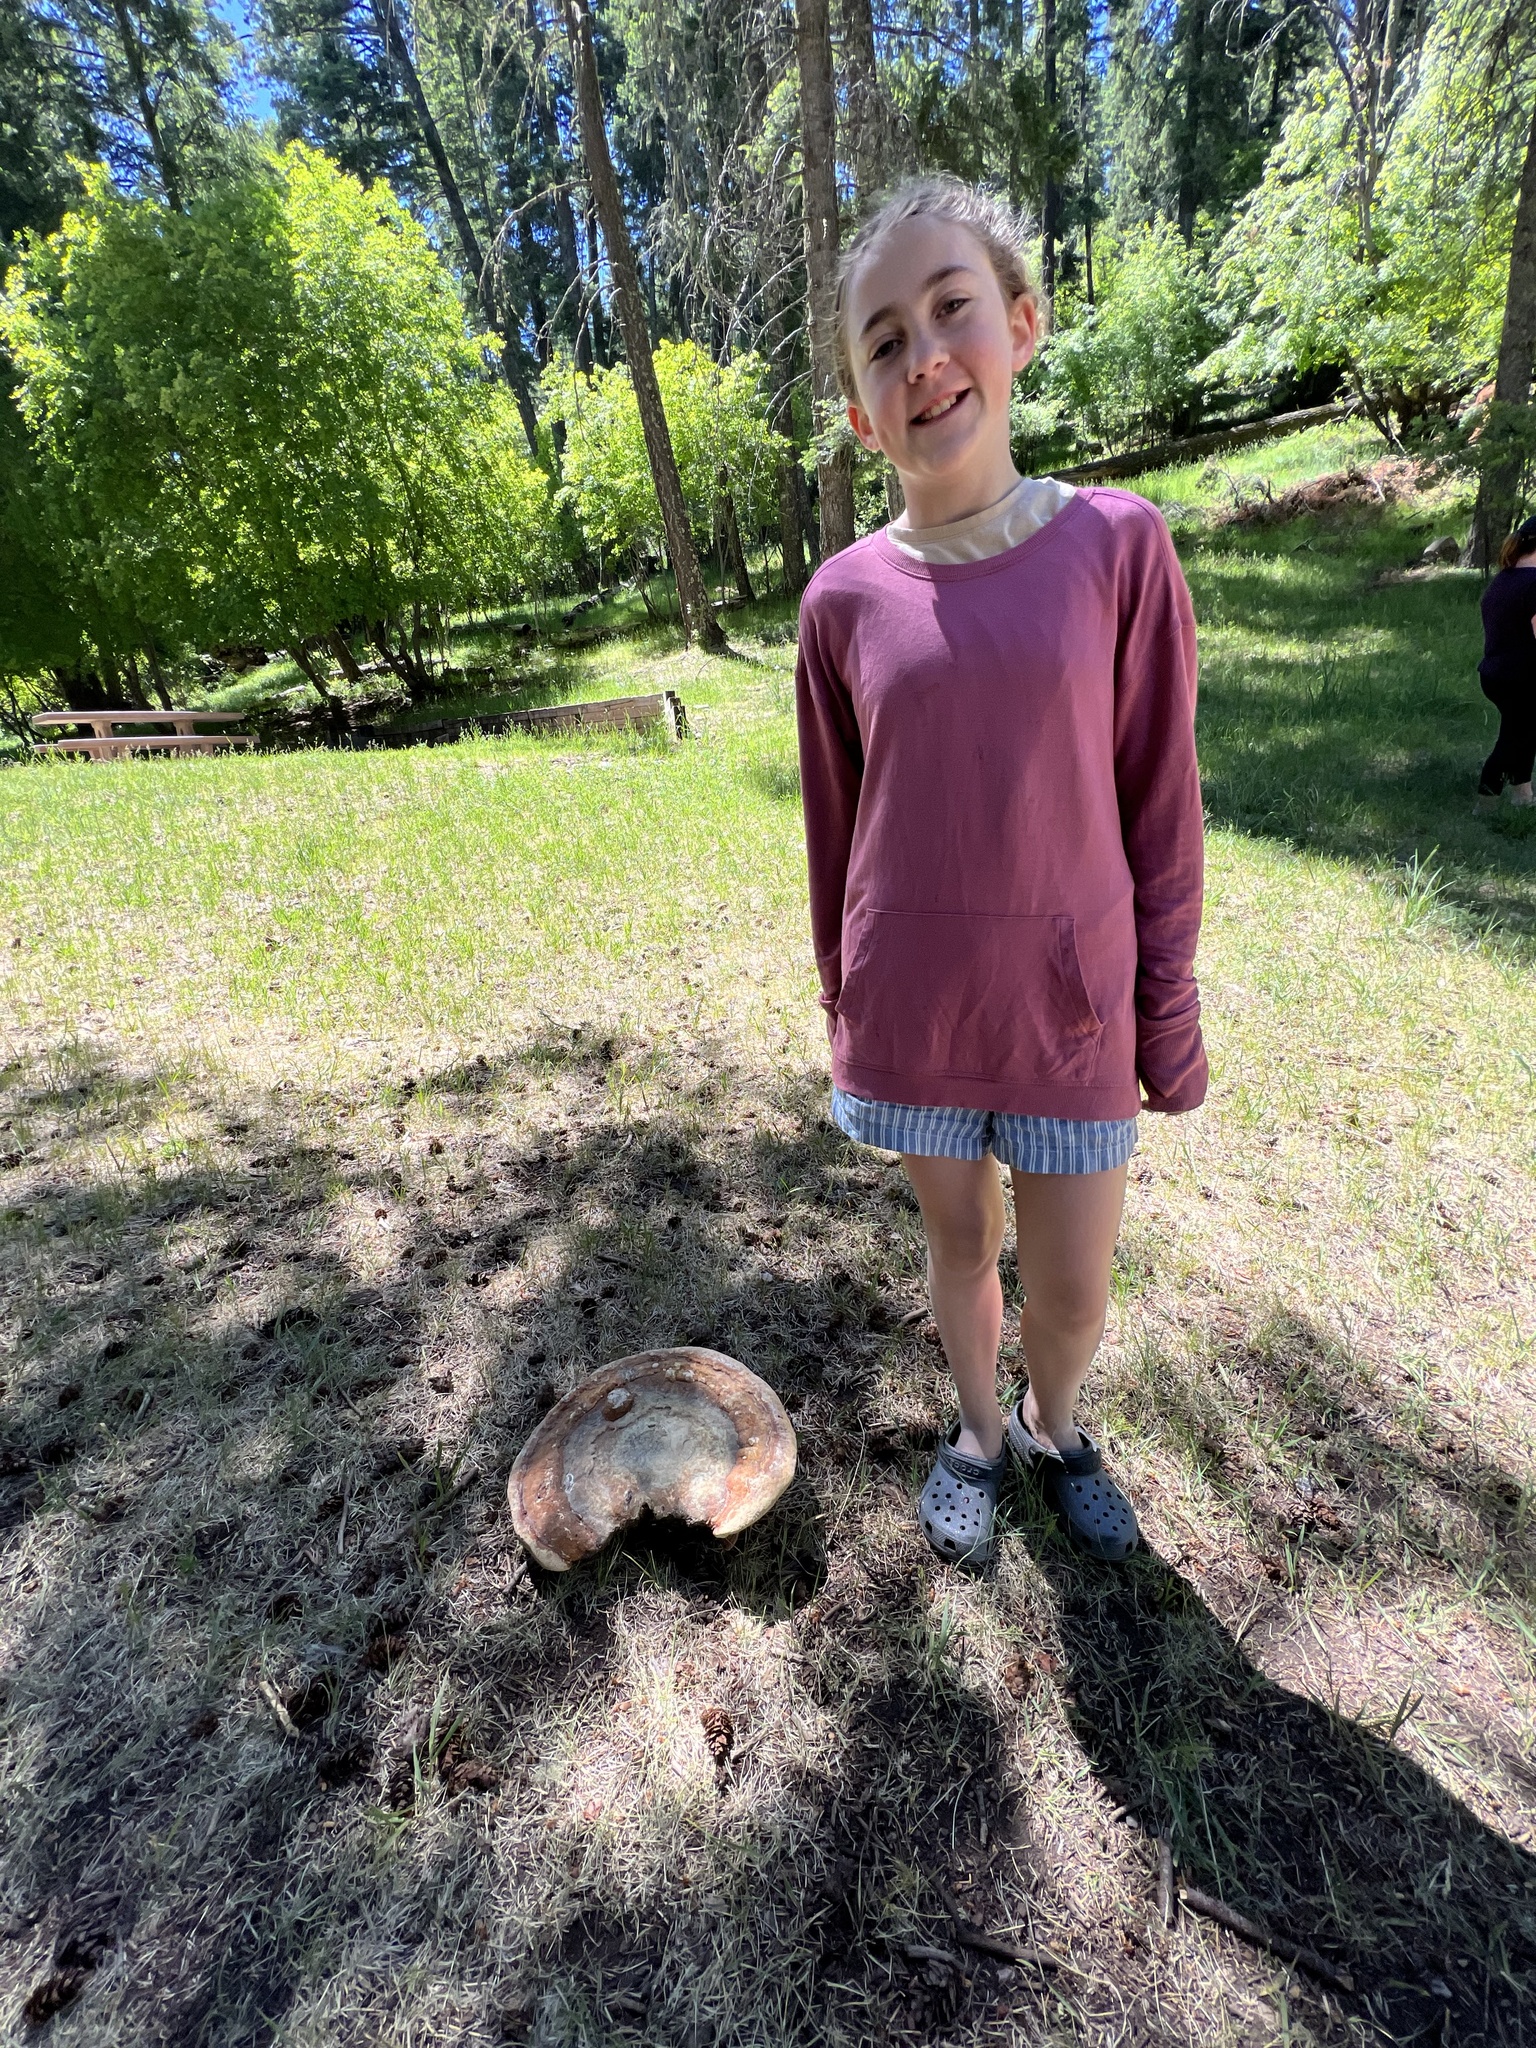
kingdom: Fungi
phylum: Basidiomycota
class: Agaricomycetes
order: Polyporales
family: Fomitopsidaceae
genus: Fomitopsis
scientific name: Fomitopsis schrenkii
